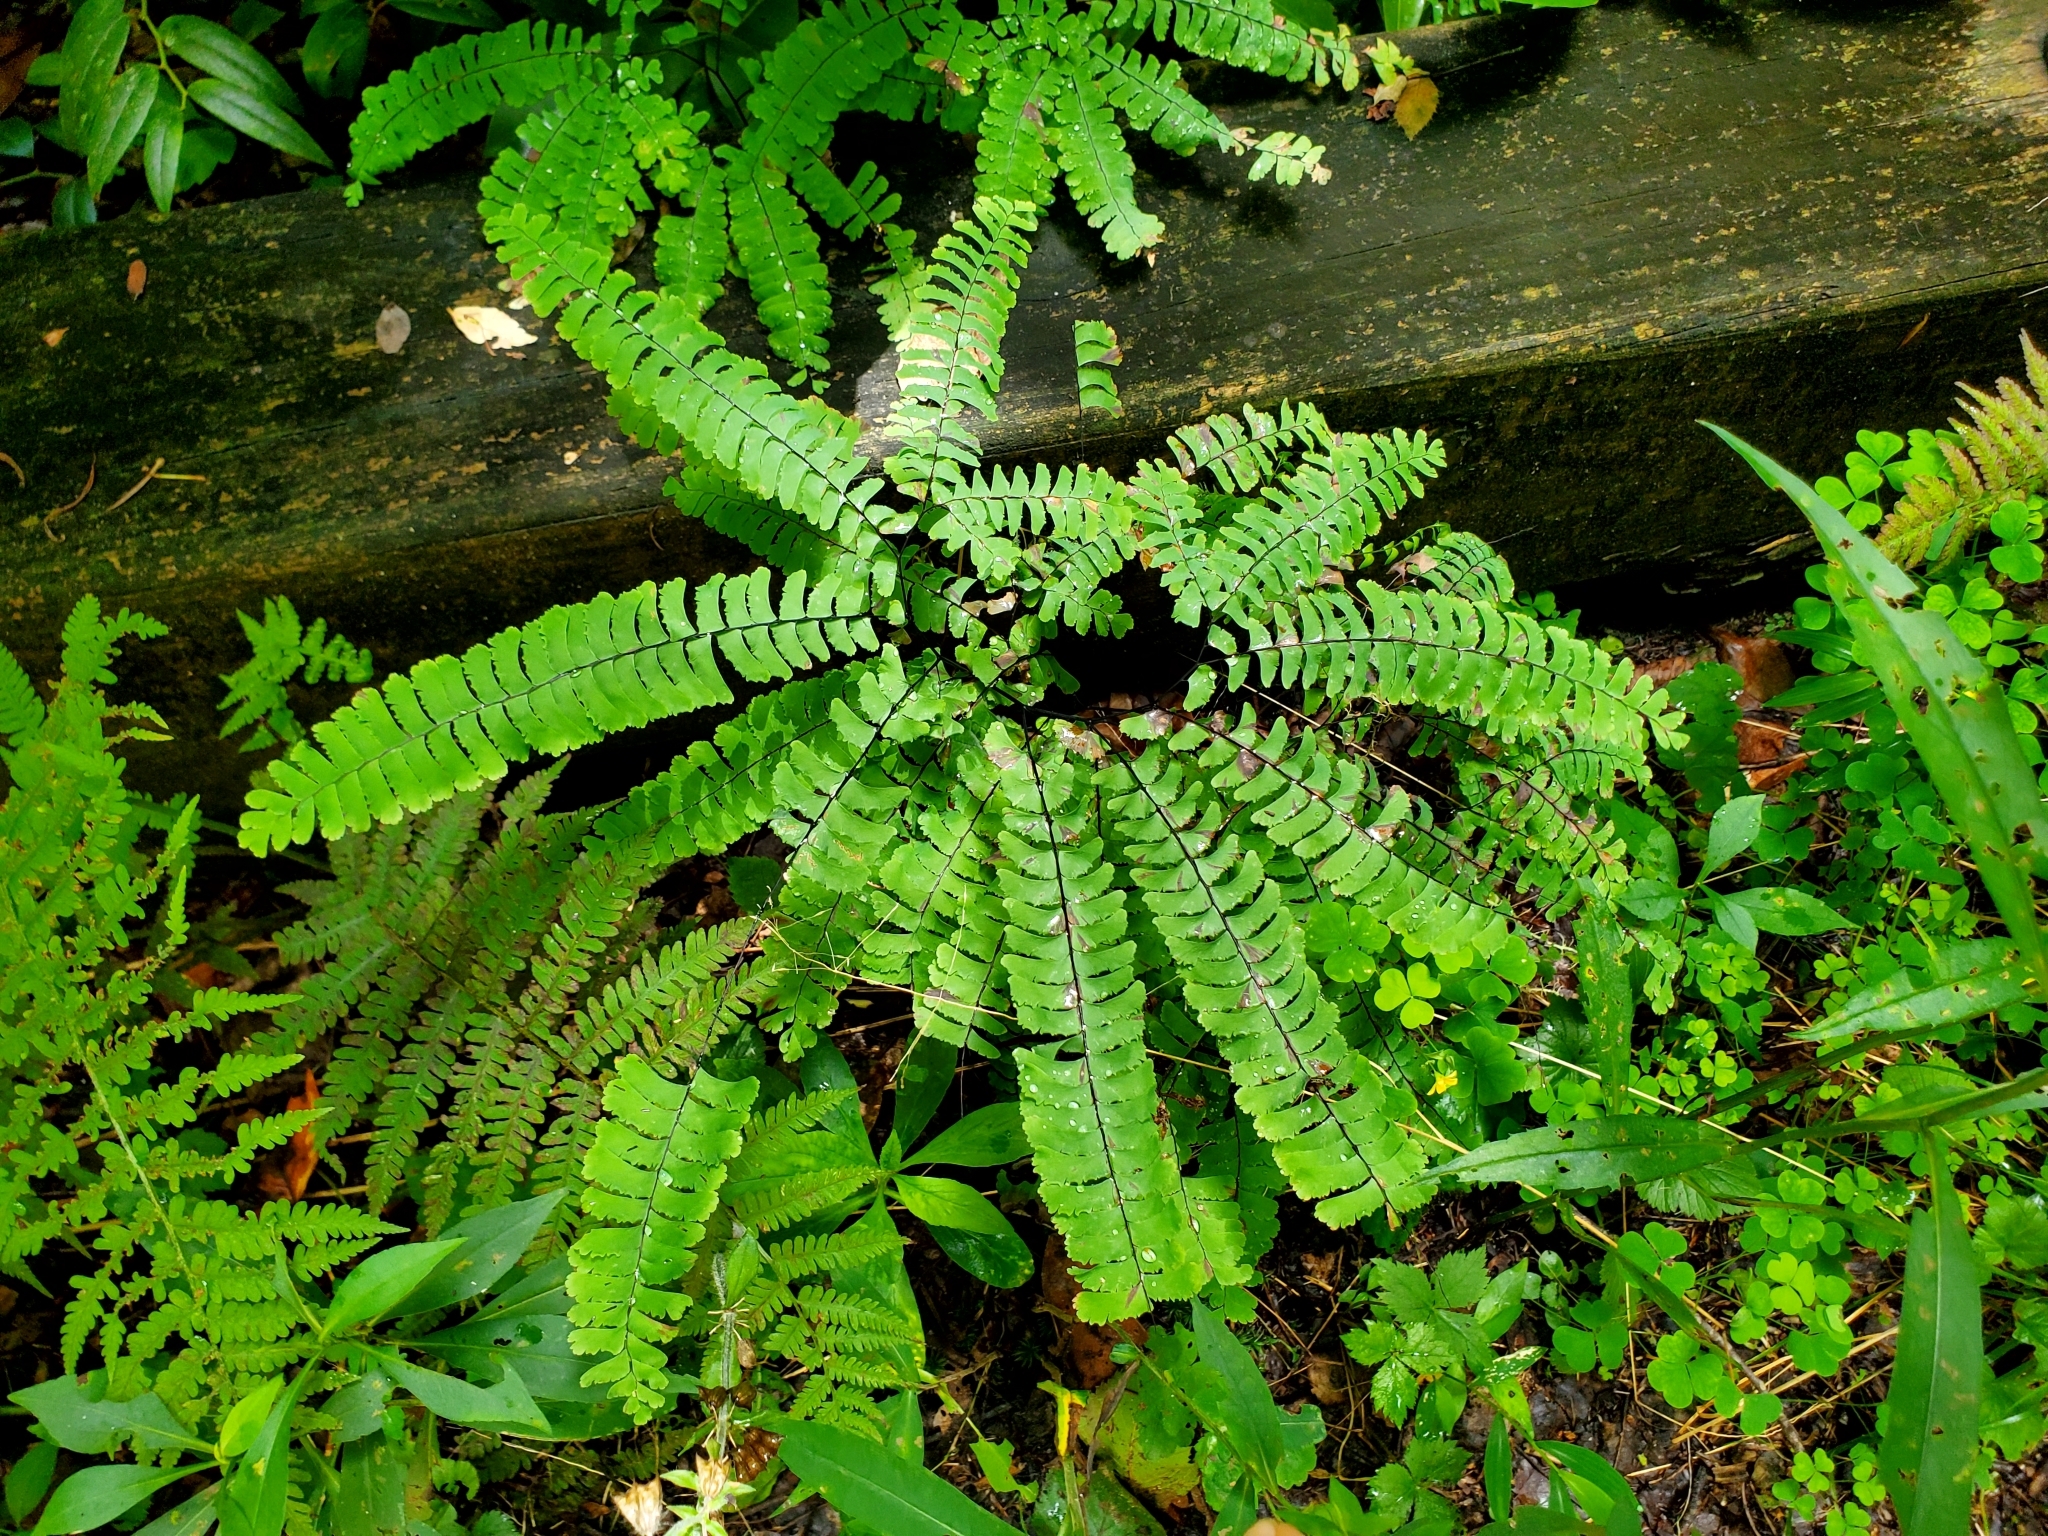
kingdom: Plantae
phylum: Tracheophyta
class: Polypodiopsida
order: Polypodiales
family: Pteridaceae
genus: Adiantum
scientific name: Adiantum pedatum
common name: Five-finger fern
